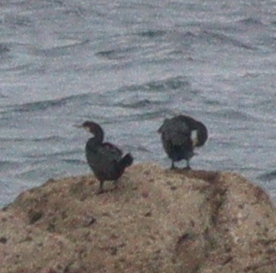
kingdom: Animalia
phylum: Chordata
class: Aves
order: Suliformes
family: Phalacrocoracidae
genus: Phalacrocorax
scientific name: Phalacrocorax aristotelis
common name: European shag
